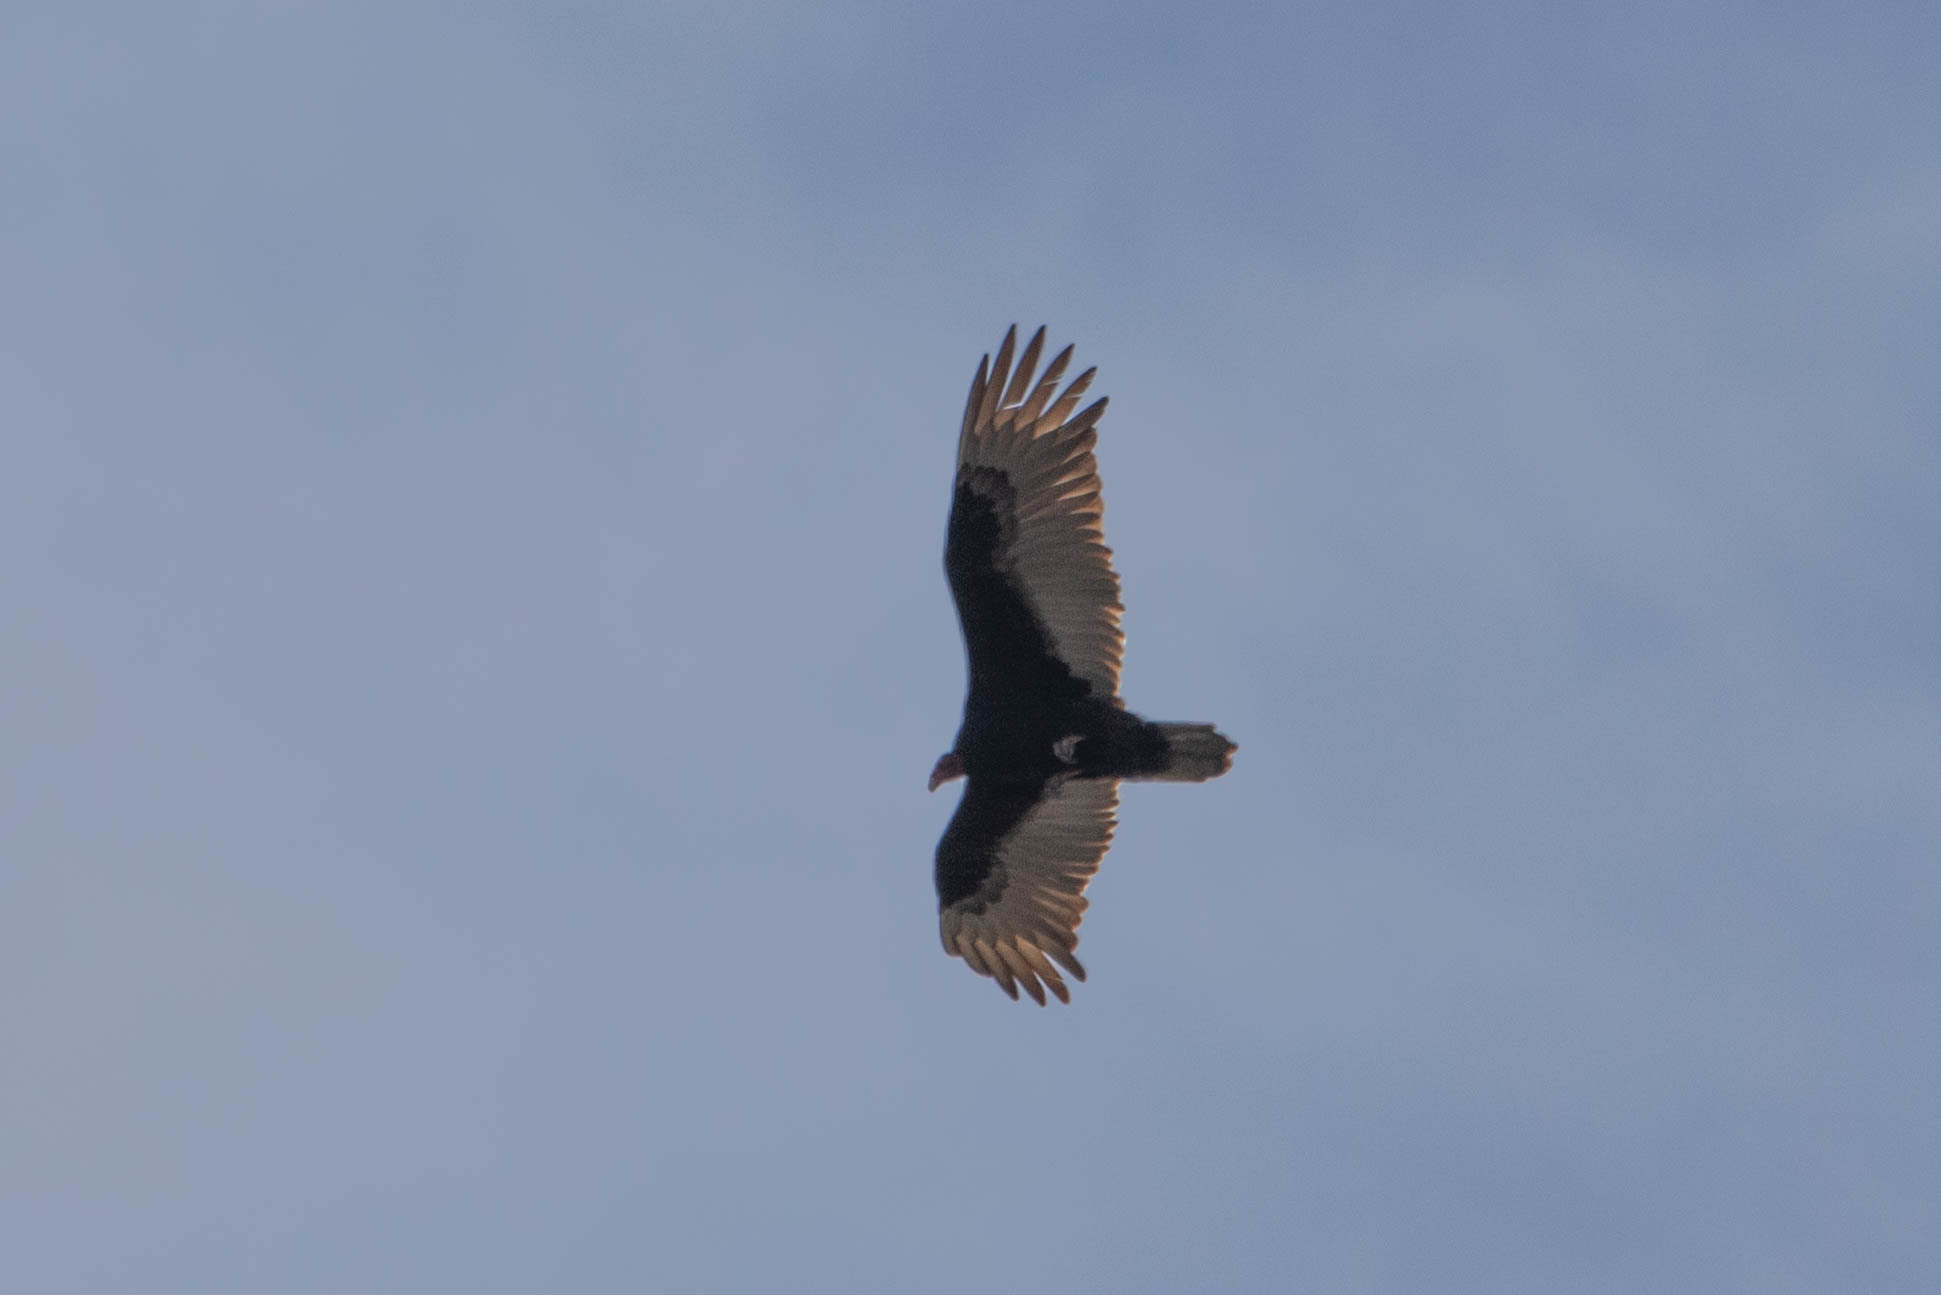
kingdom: Animalia
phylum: Chordata
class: Aves
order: Accipitriformes
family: Cathartidae
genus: Cathartes
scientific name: Cathartes aura
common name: Turkey vulture
